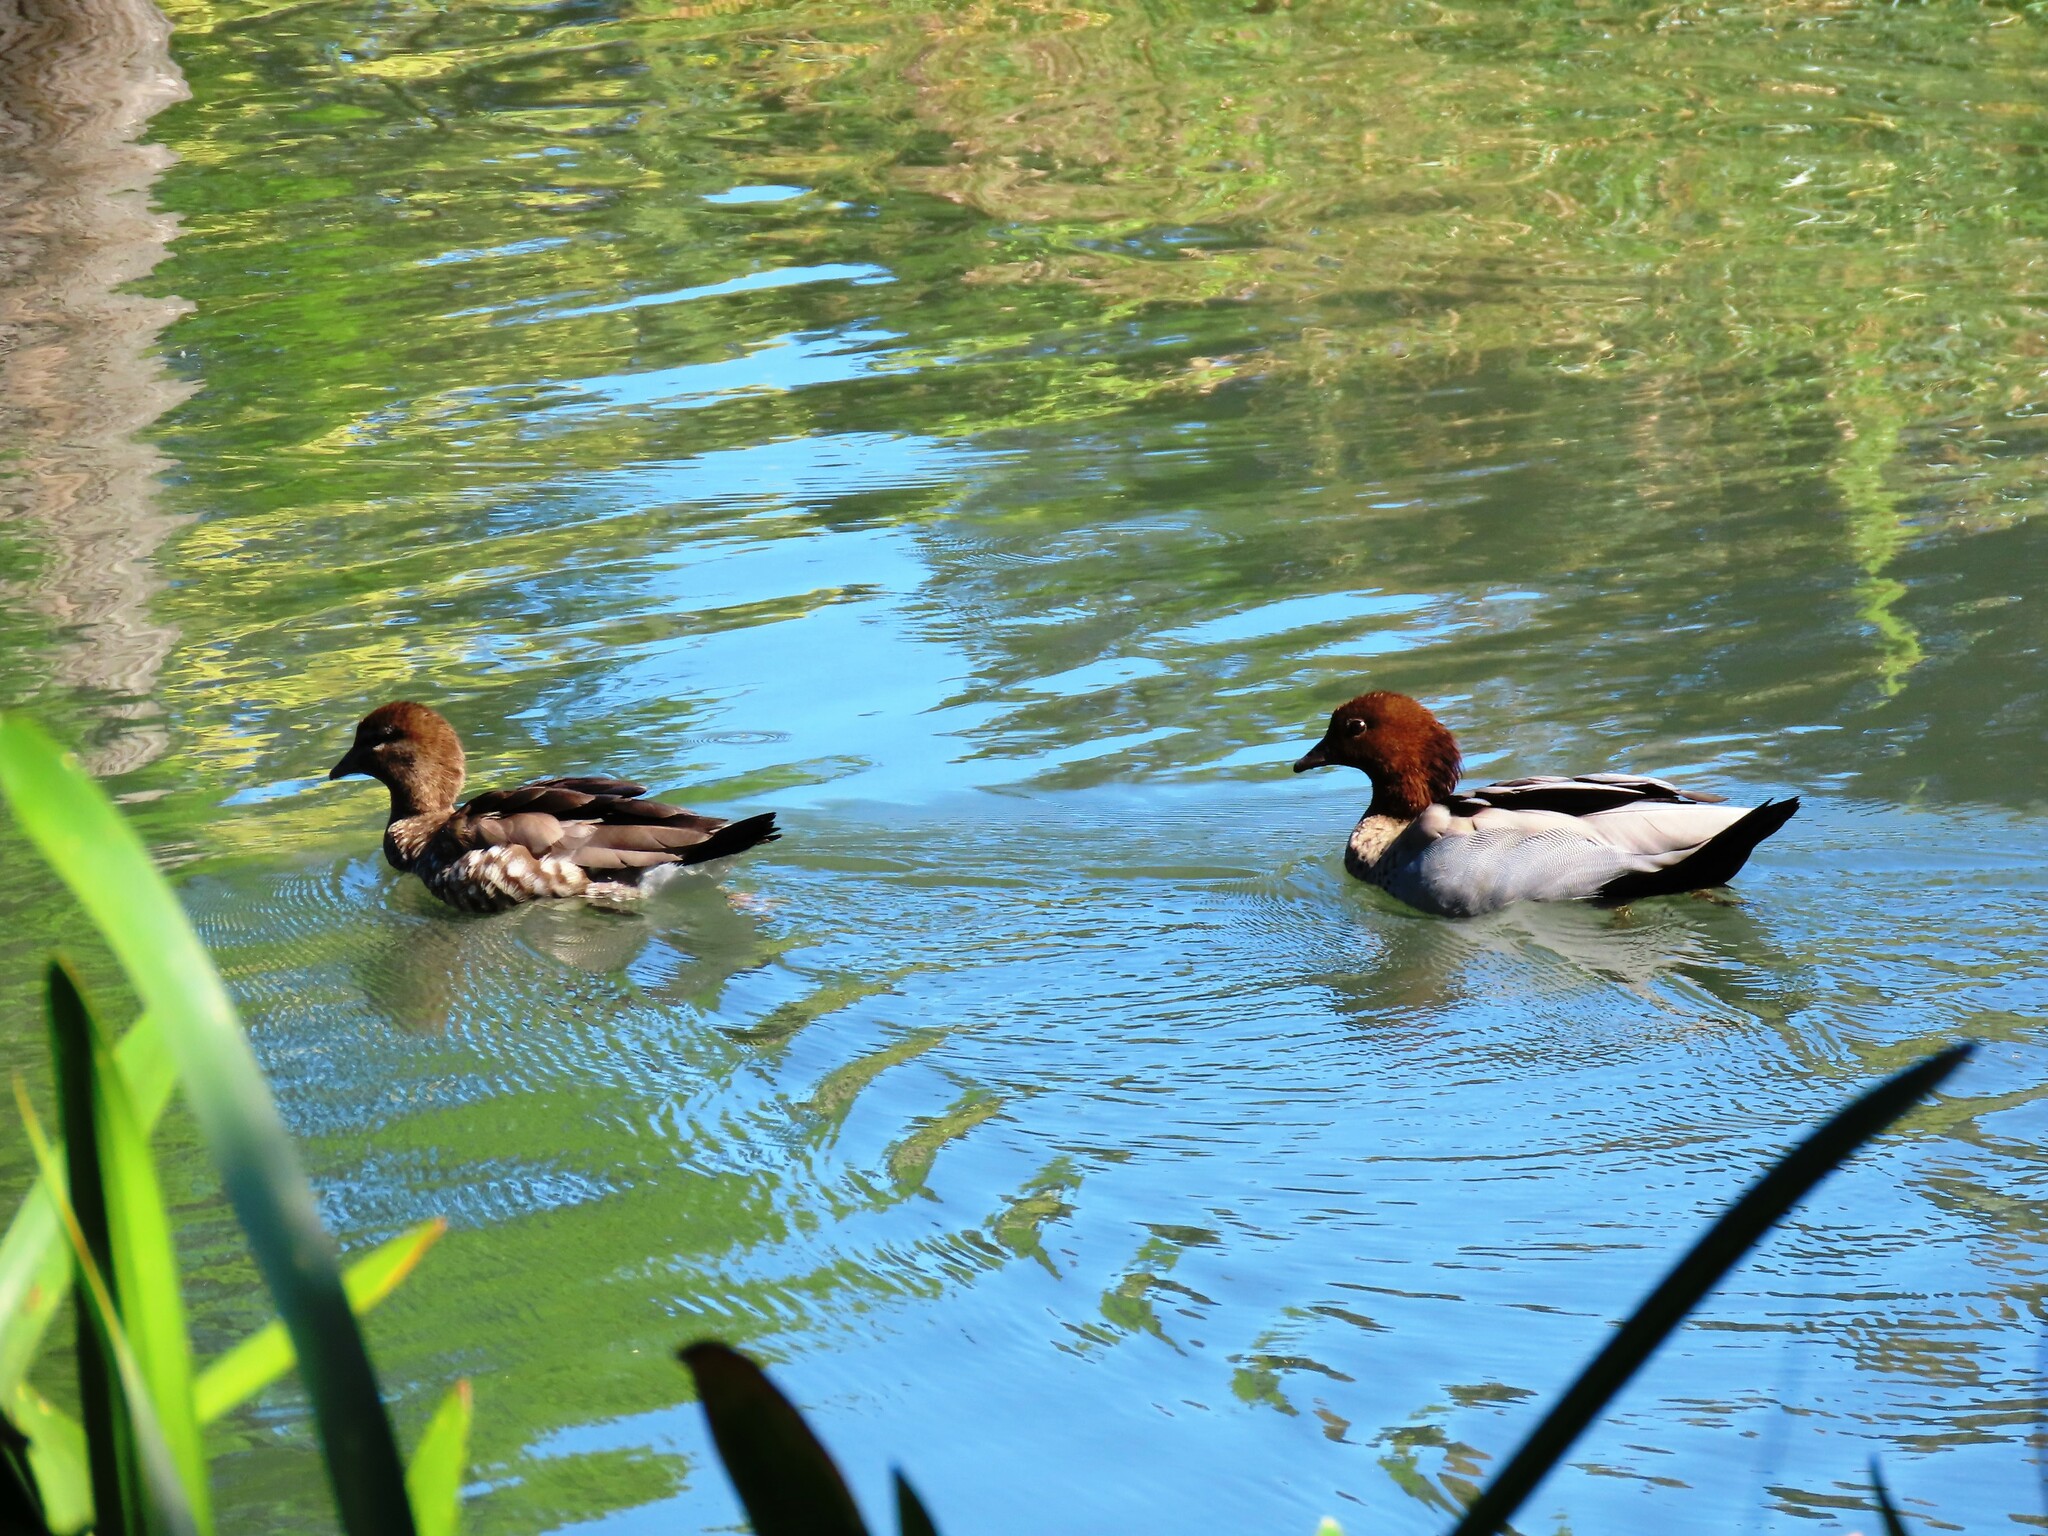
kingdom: Animalia
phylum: Chordata
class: Aves
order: Anseriformes
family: Anatidae
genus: Chenonetta
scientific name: Chenonetta jubata
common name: Maned duck
